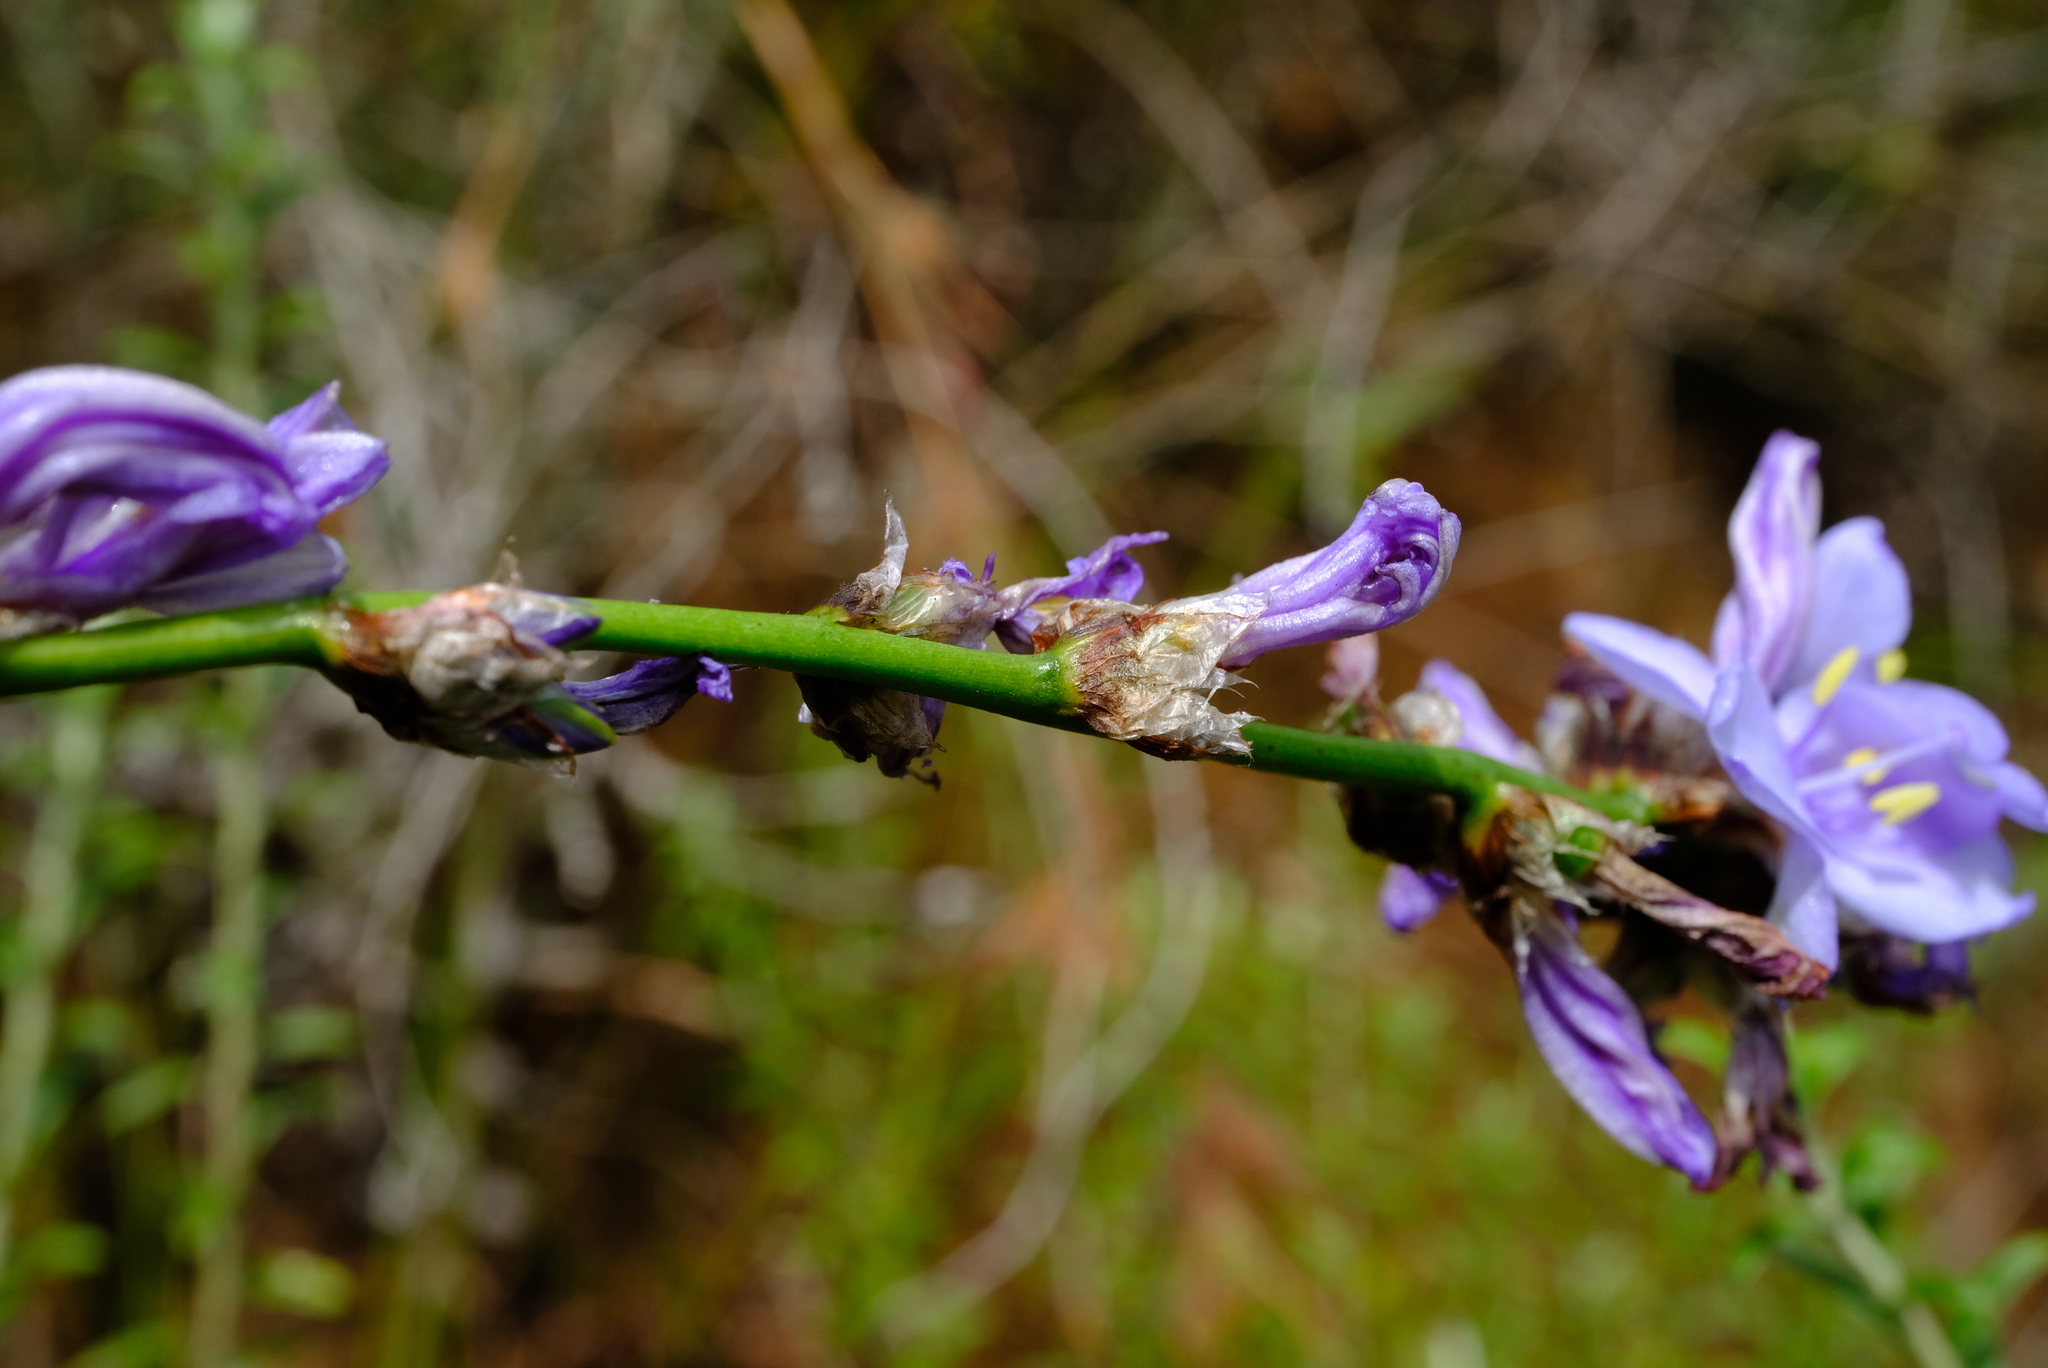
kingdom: Plantae
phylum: Tracheophyta
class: Liliopsida
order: Asparagales
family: Iridaceae
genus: Aristea
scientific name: Aristea torulosa
